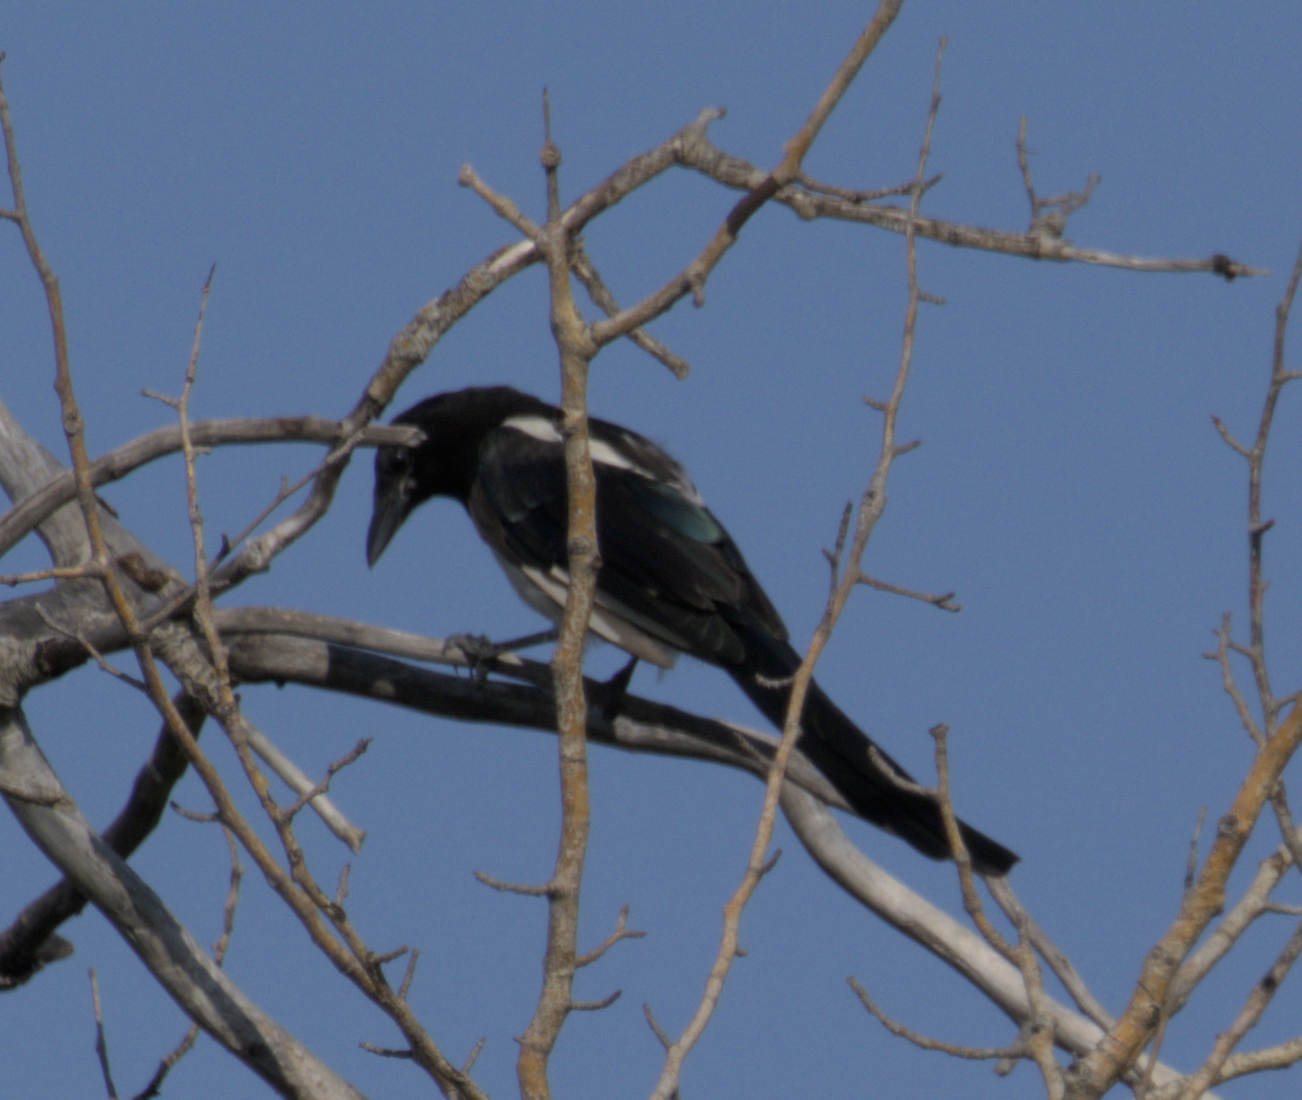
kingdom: Animalia
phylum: Chordata
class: Aves
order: Passeriformes
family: Corvidae
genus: Pica
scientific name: Pica hudsonia
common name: Black-billed magpie
